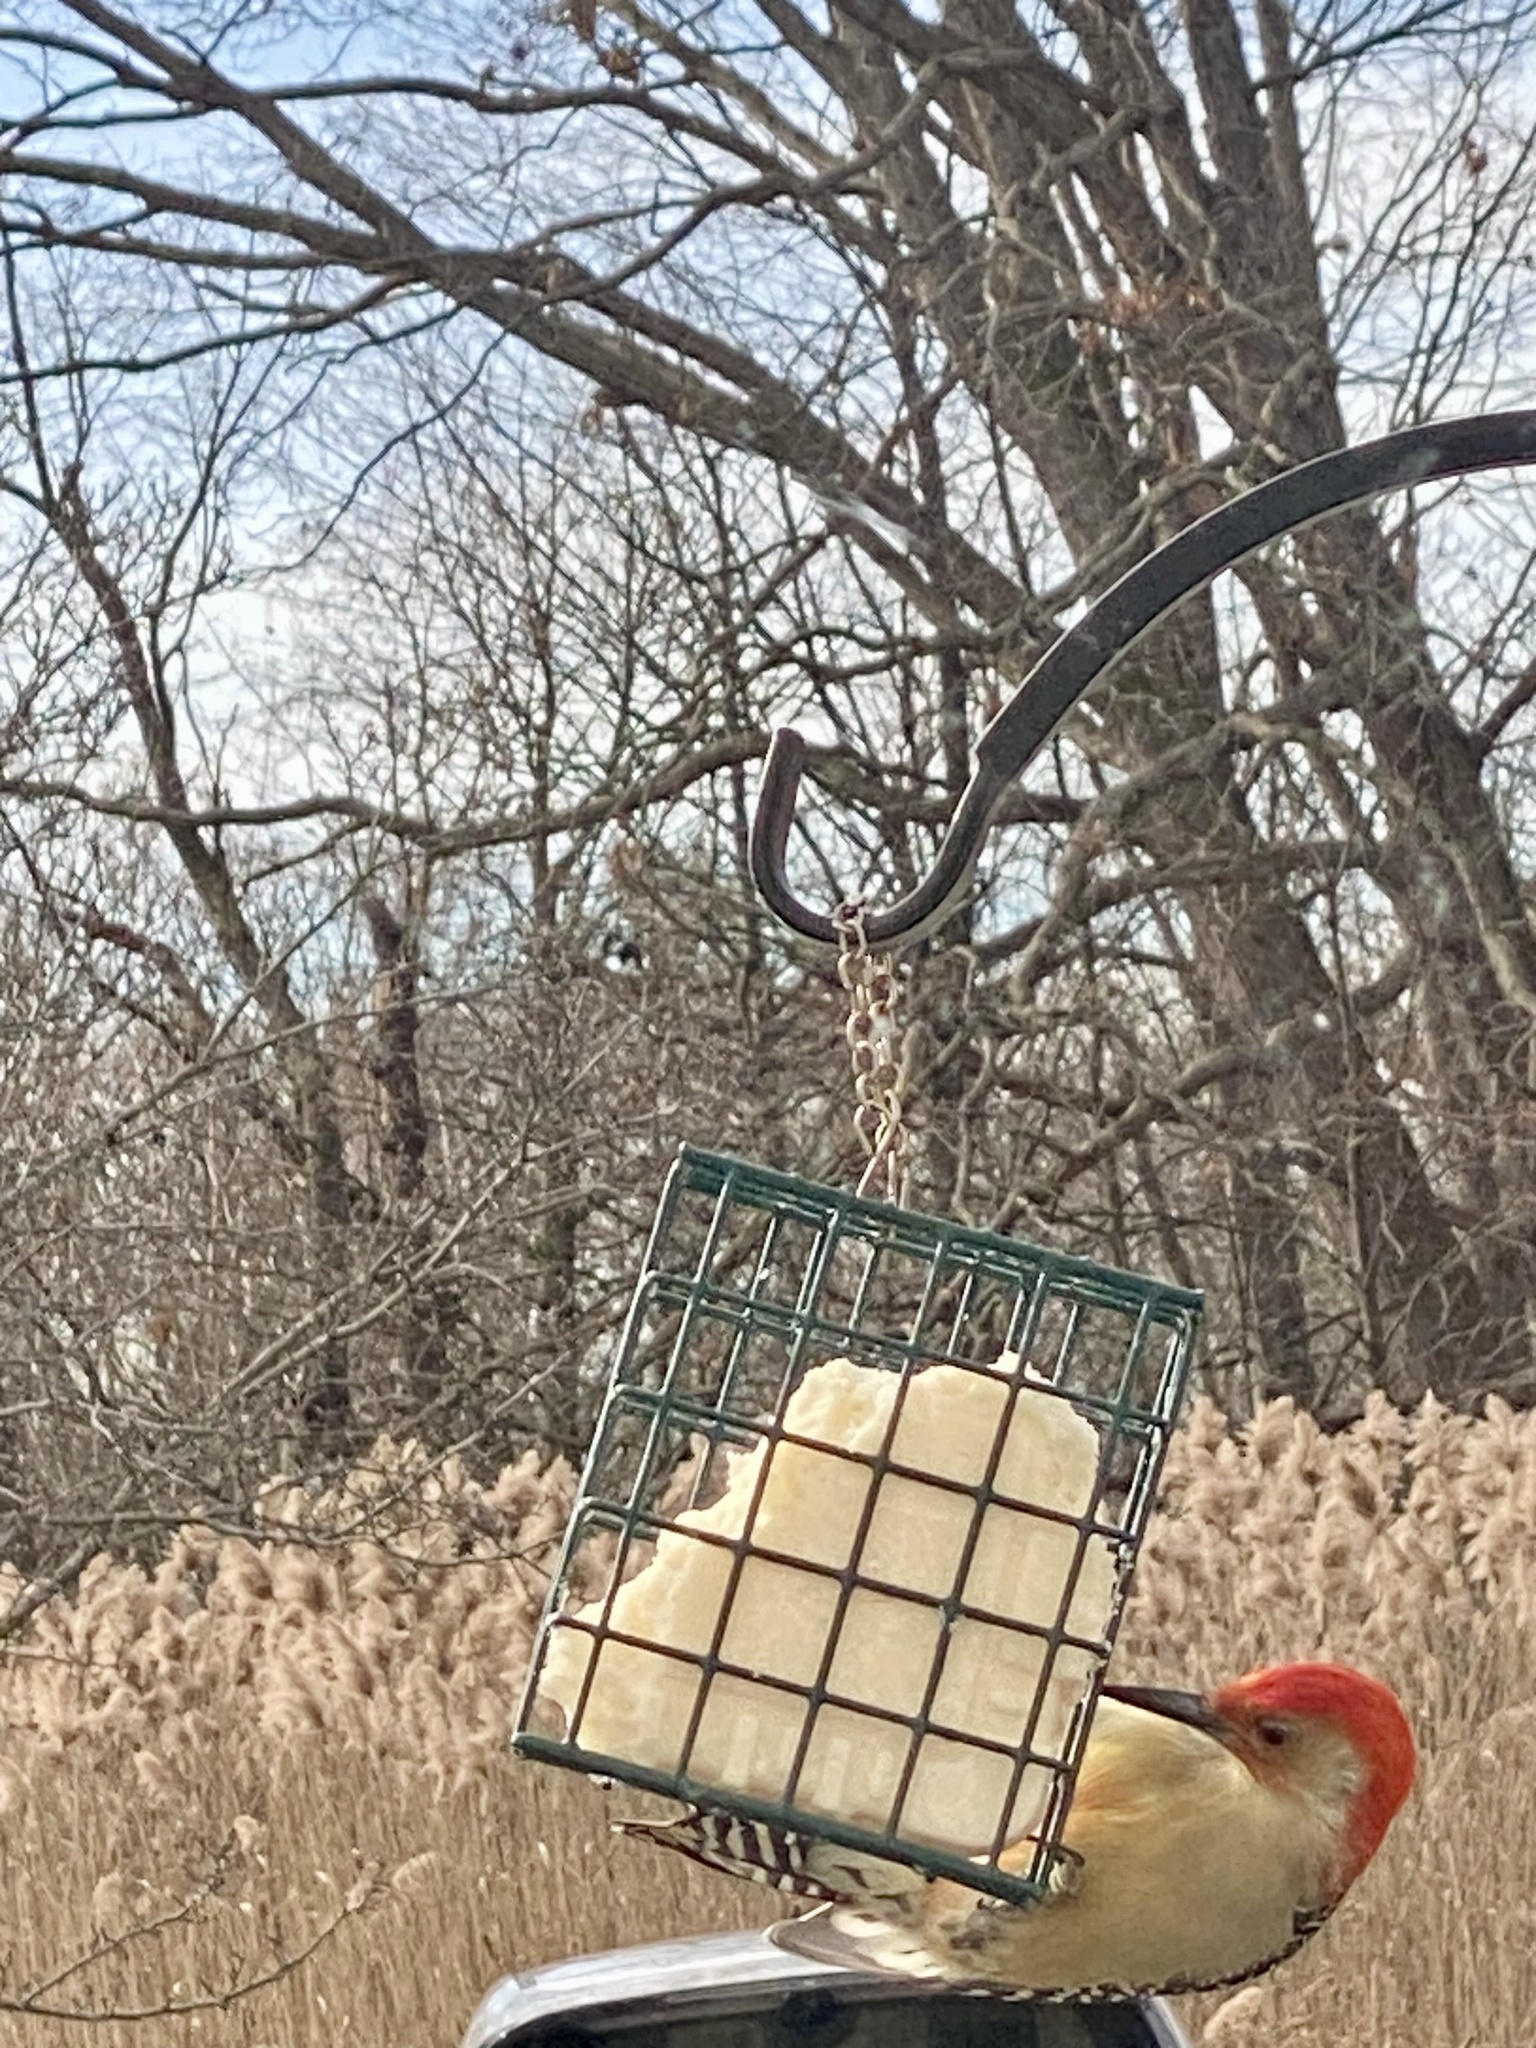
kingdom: Animalia
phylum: Chordata
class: Aves
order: Piciformes
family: Picidae
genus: Melanerpes
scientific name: Melanerpes carolinus
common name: Red-bellied woodpecker
